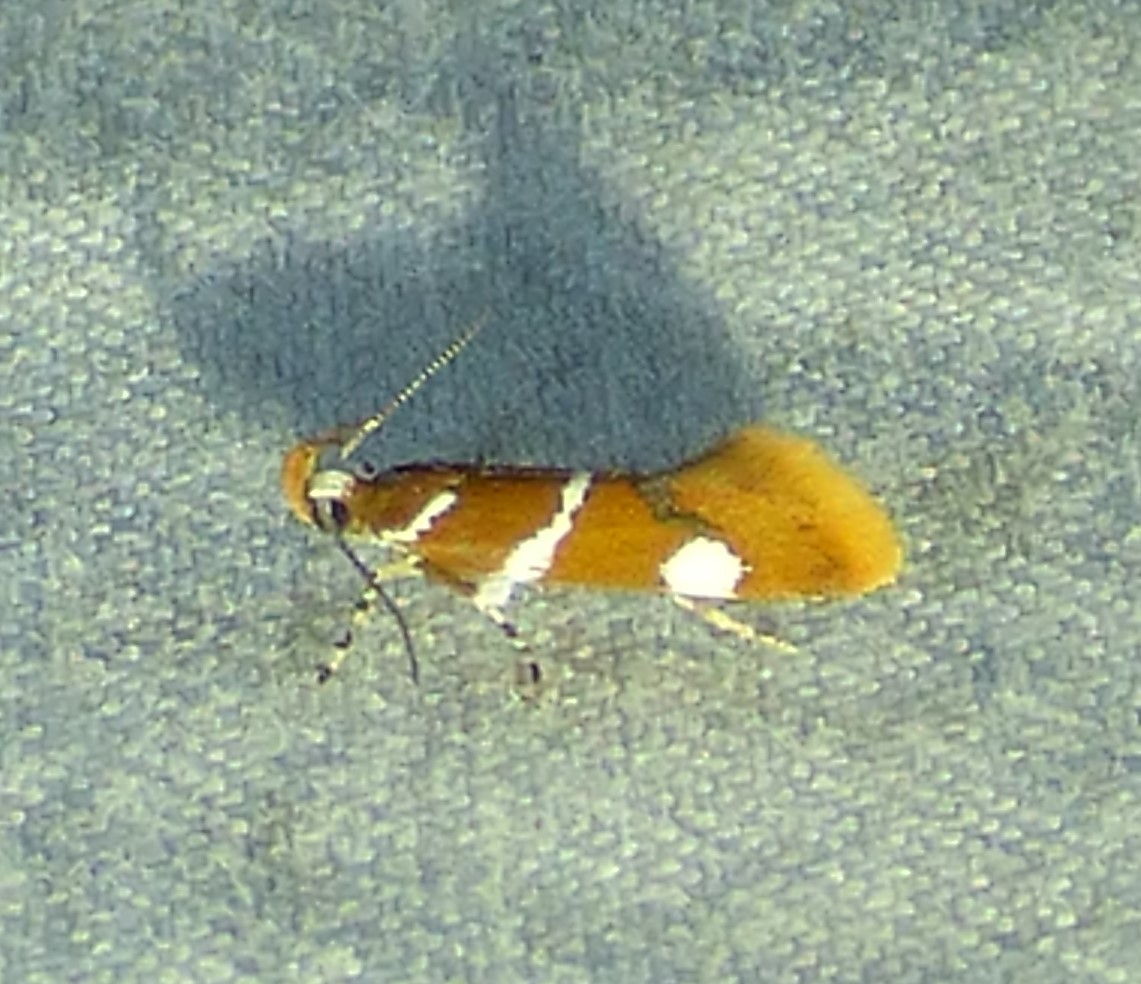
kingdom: Animalia
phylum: Arthropoda
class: Insecta
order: Lepidoptera
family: Oecophoridae
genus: Promalactis
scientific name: Promalactis suzukiella
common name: Moth
